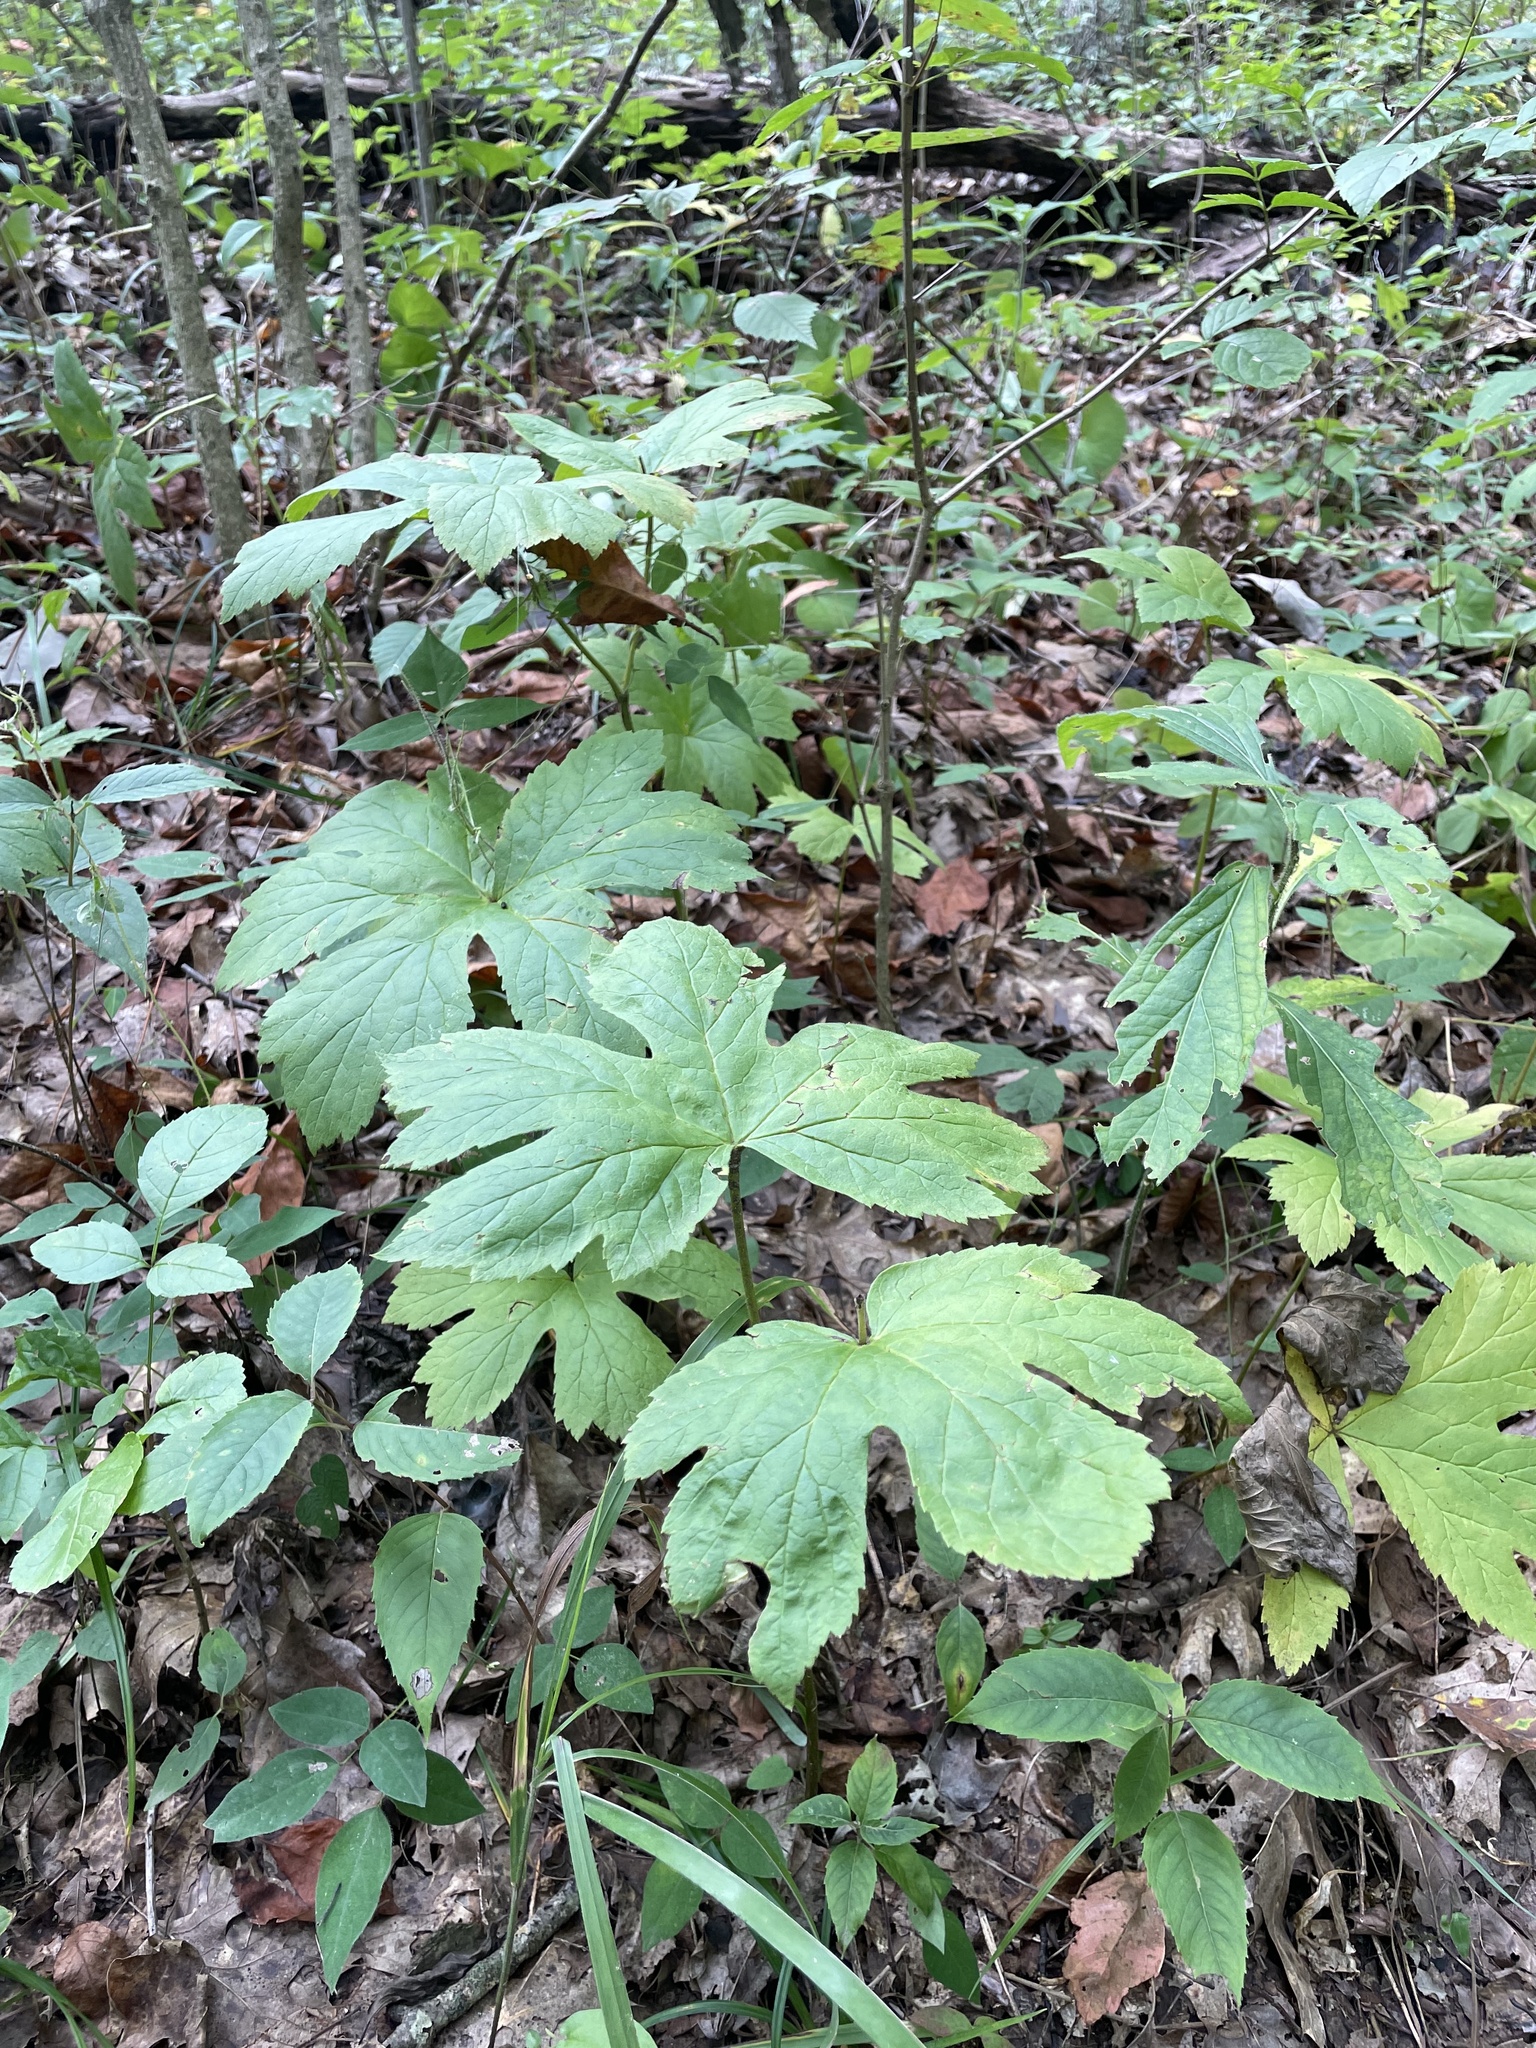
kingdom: Plantae
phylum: Tracheophyta
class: Magnoliopsida
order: Ranunculales
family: Ranunculaceae
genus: Hydrastis
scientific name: Hydrastis canadensis
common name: Goldenseal
